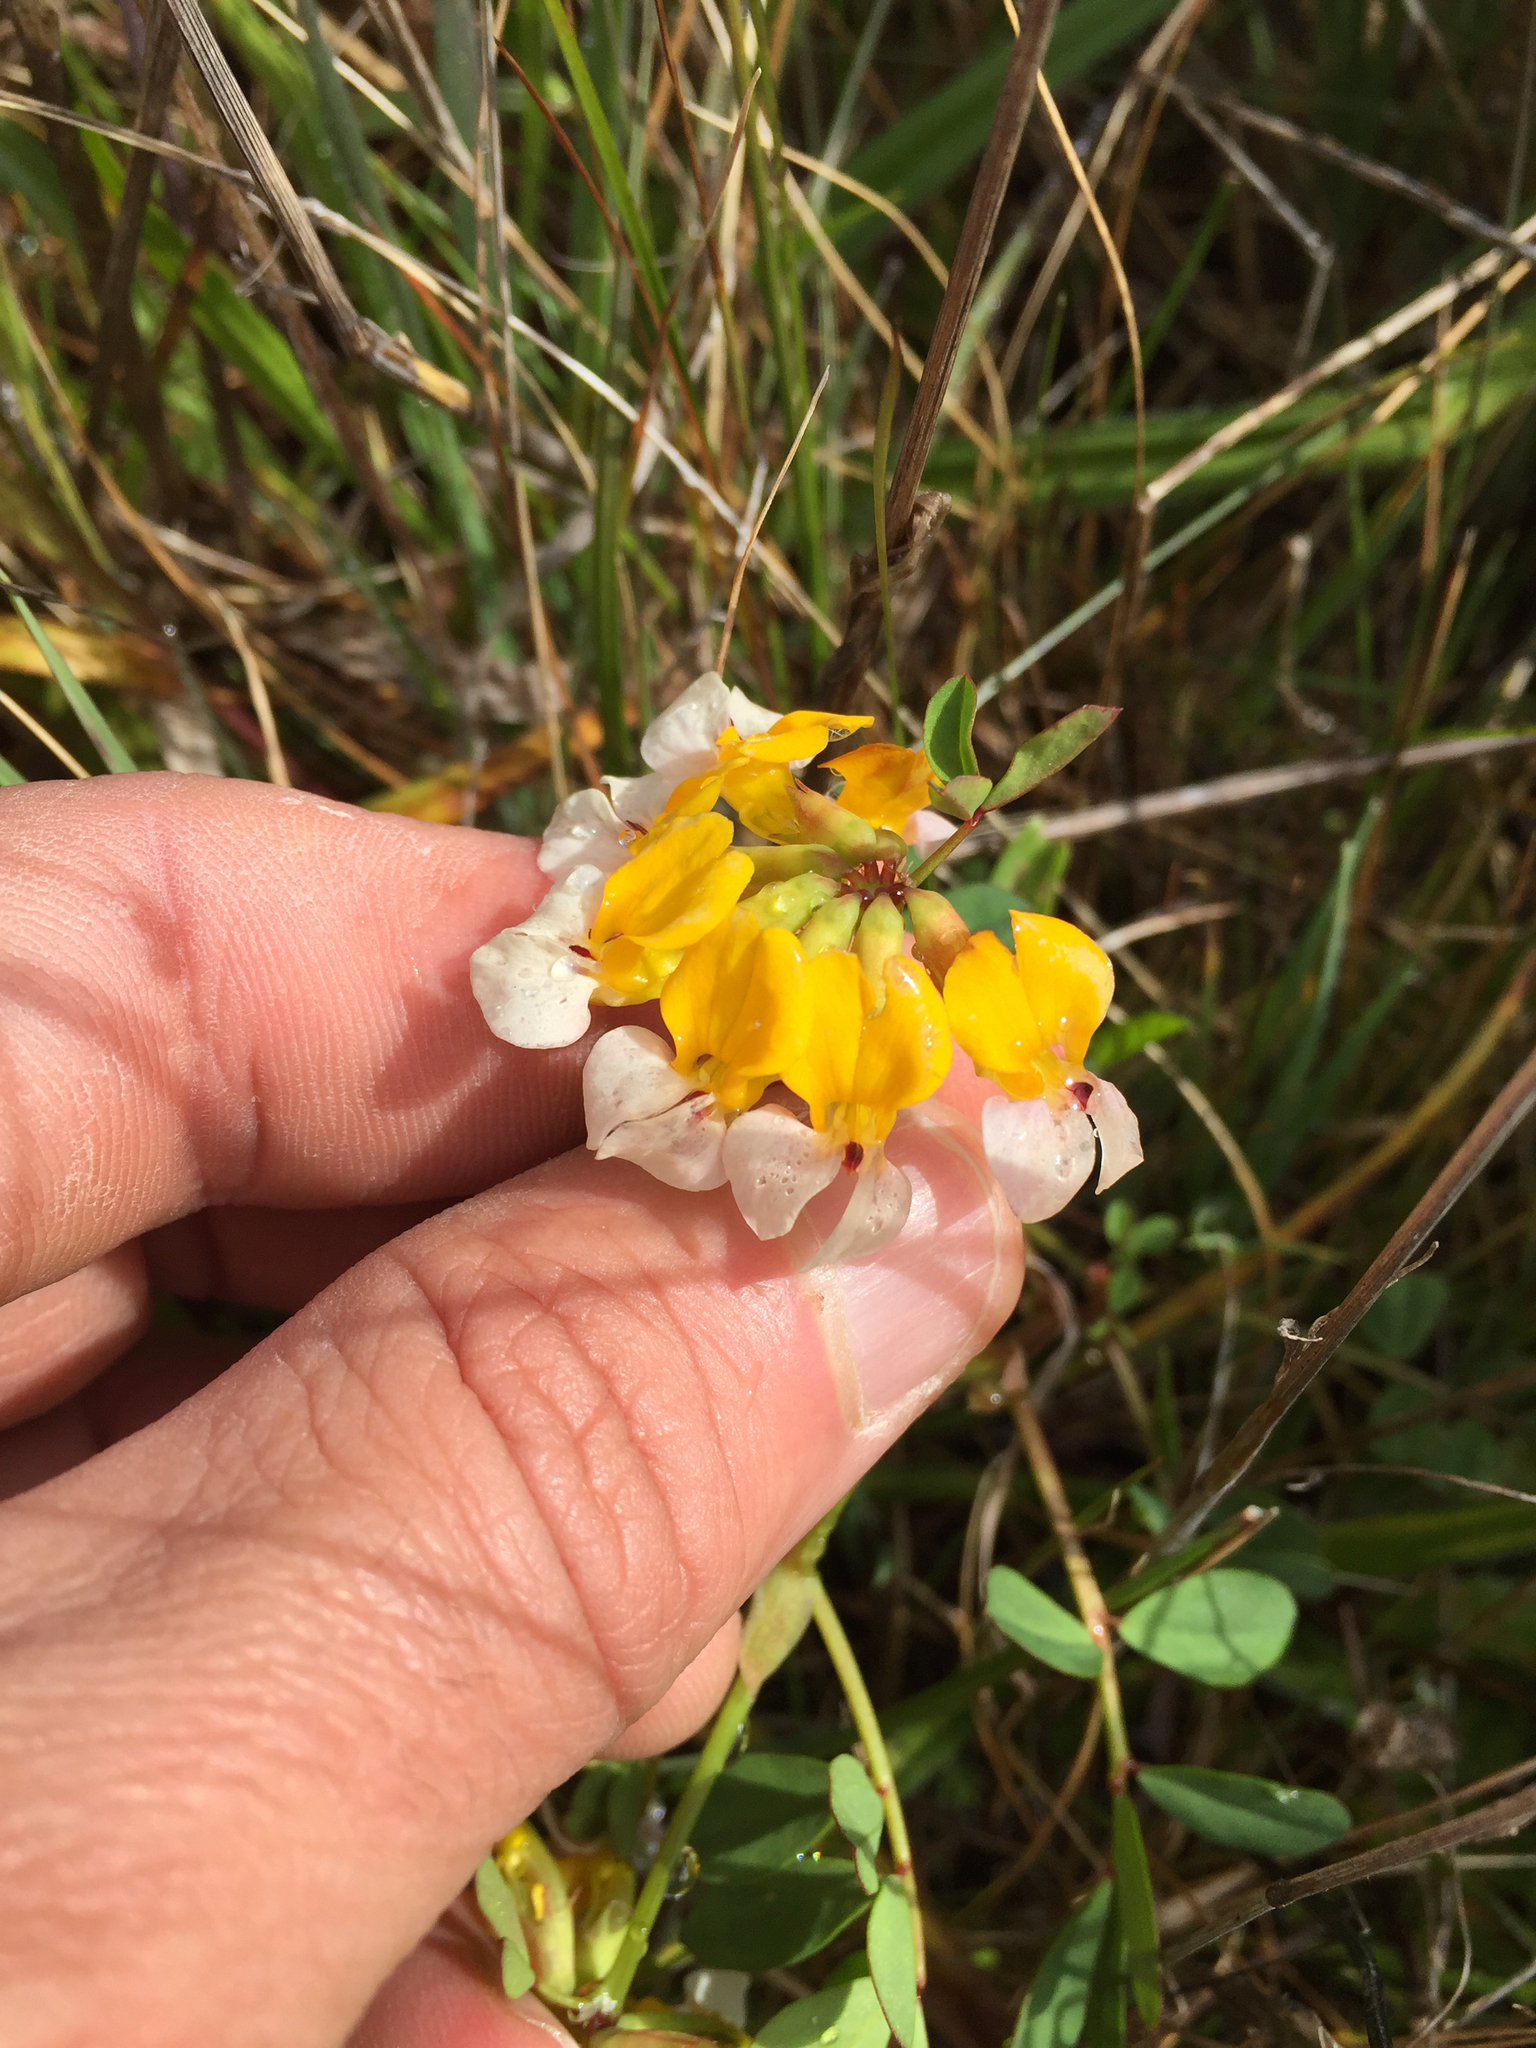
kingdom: Plantae
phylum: Tracheophyta
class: Magnoliopsida
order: Fabales
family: Fabaceae
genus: Hosackia
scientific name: Hosackia gracilis
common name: Seaside bird's-foot lotus
